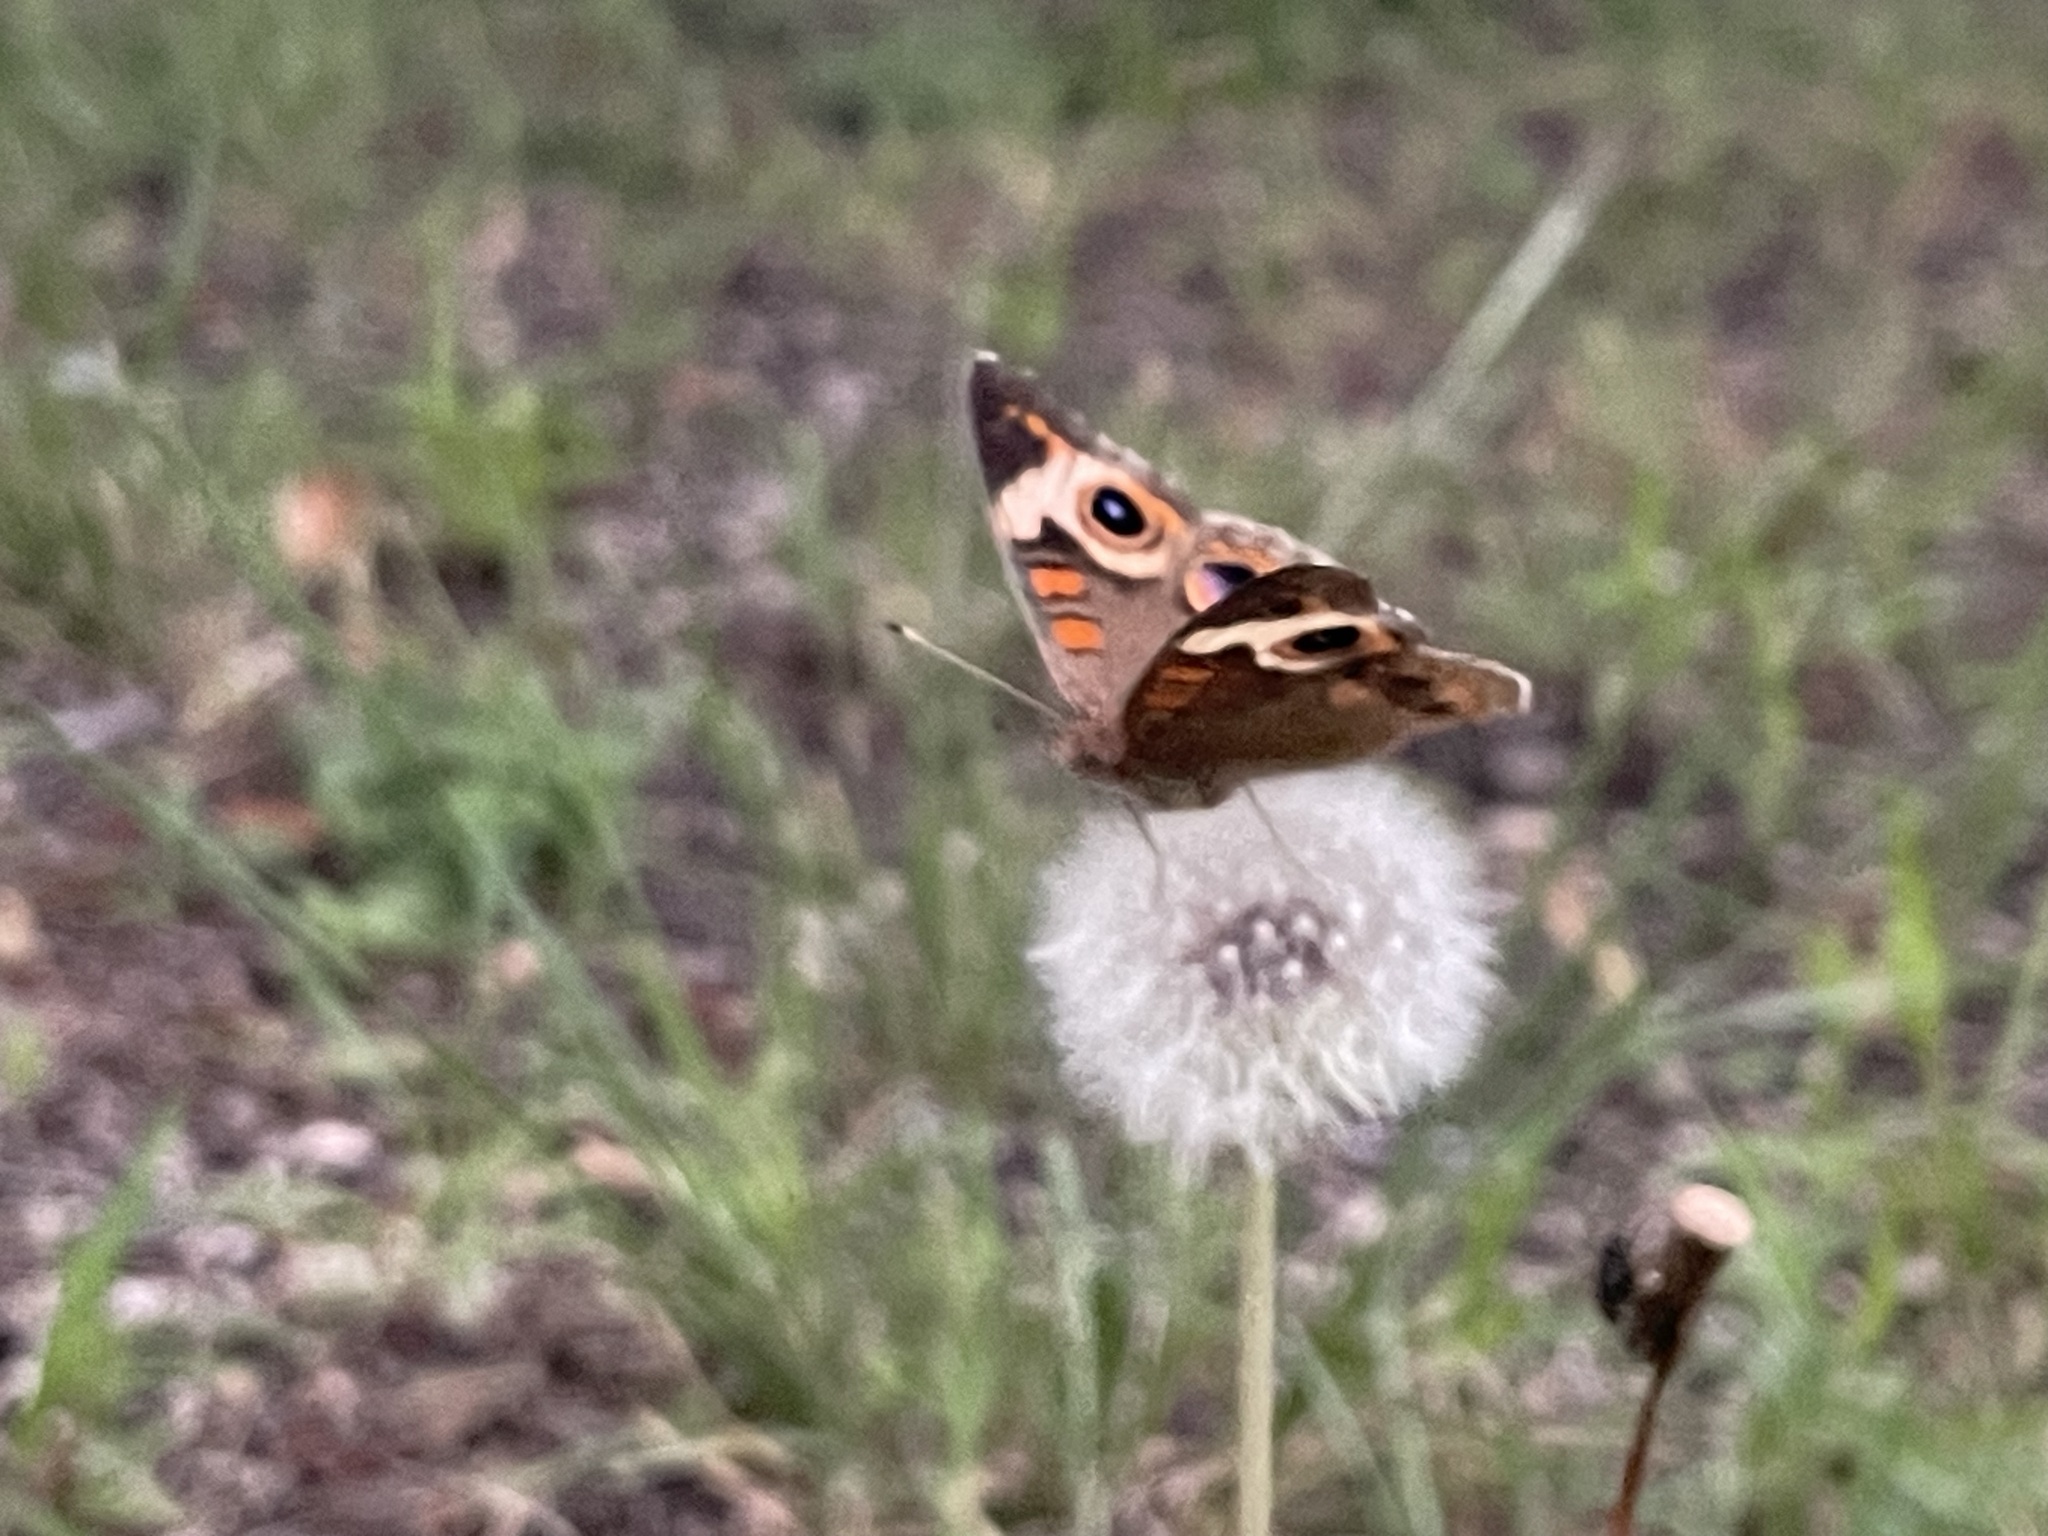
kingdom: Animalia
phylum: Arthropoda
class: Insecta
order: Lepidoptera
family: Nymphalidae
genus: Junonia
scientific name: Junonia coenia
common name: Common buckeye
